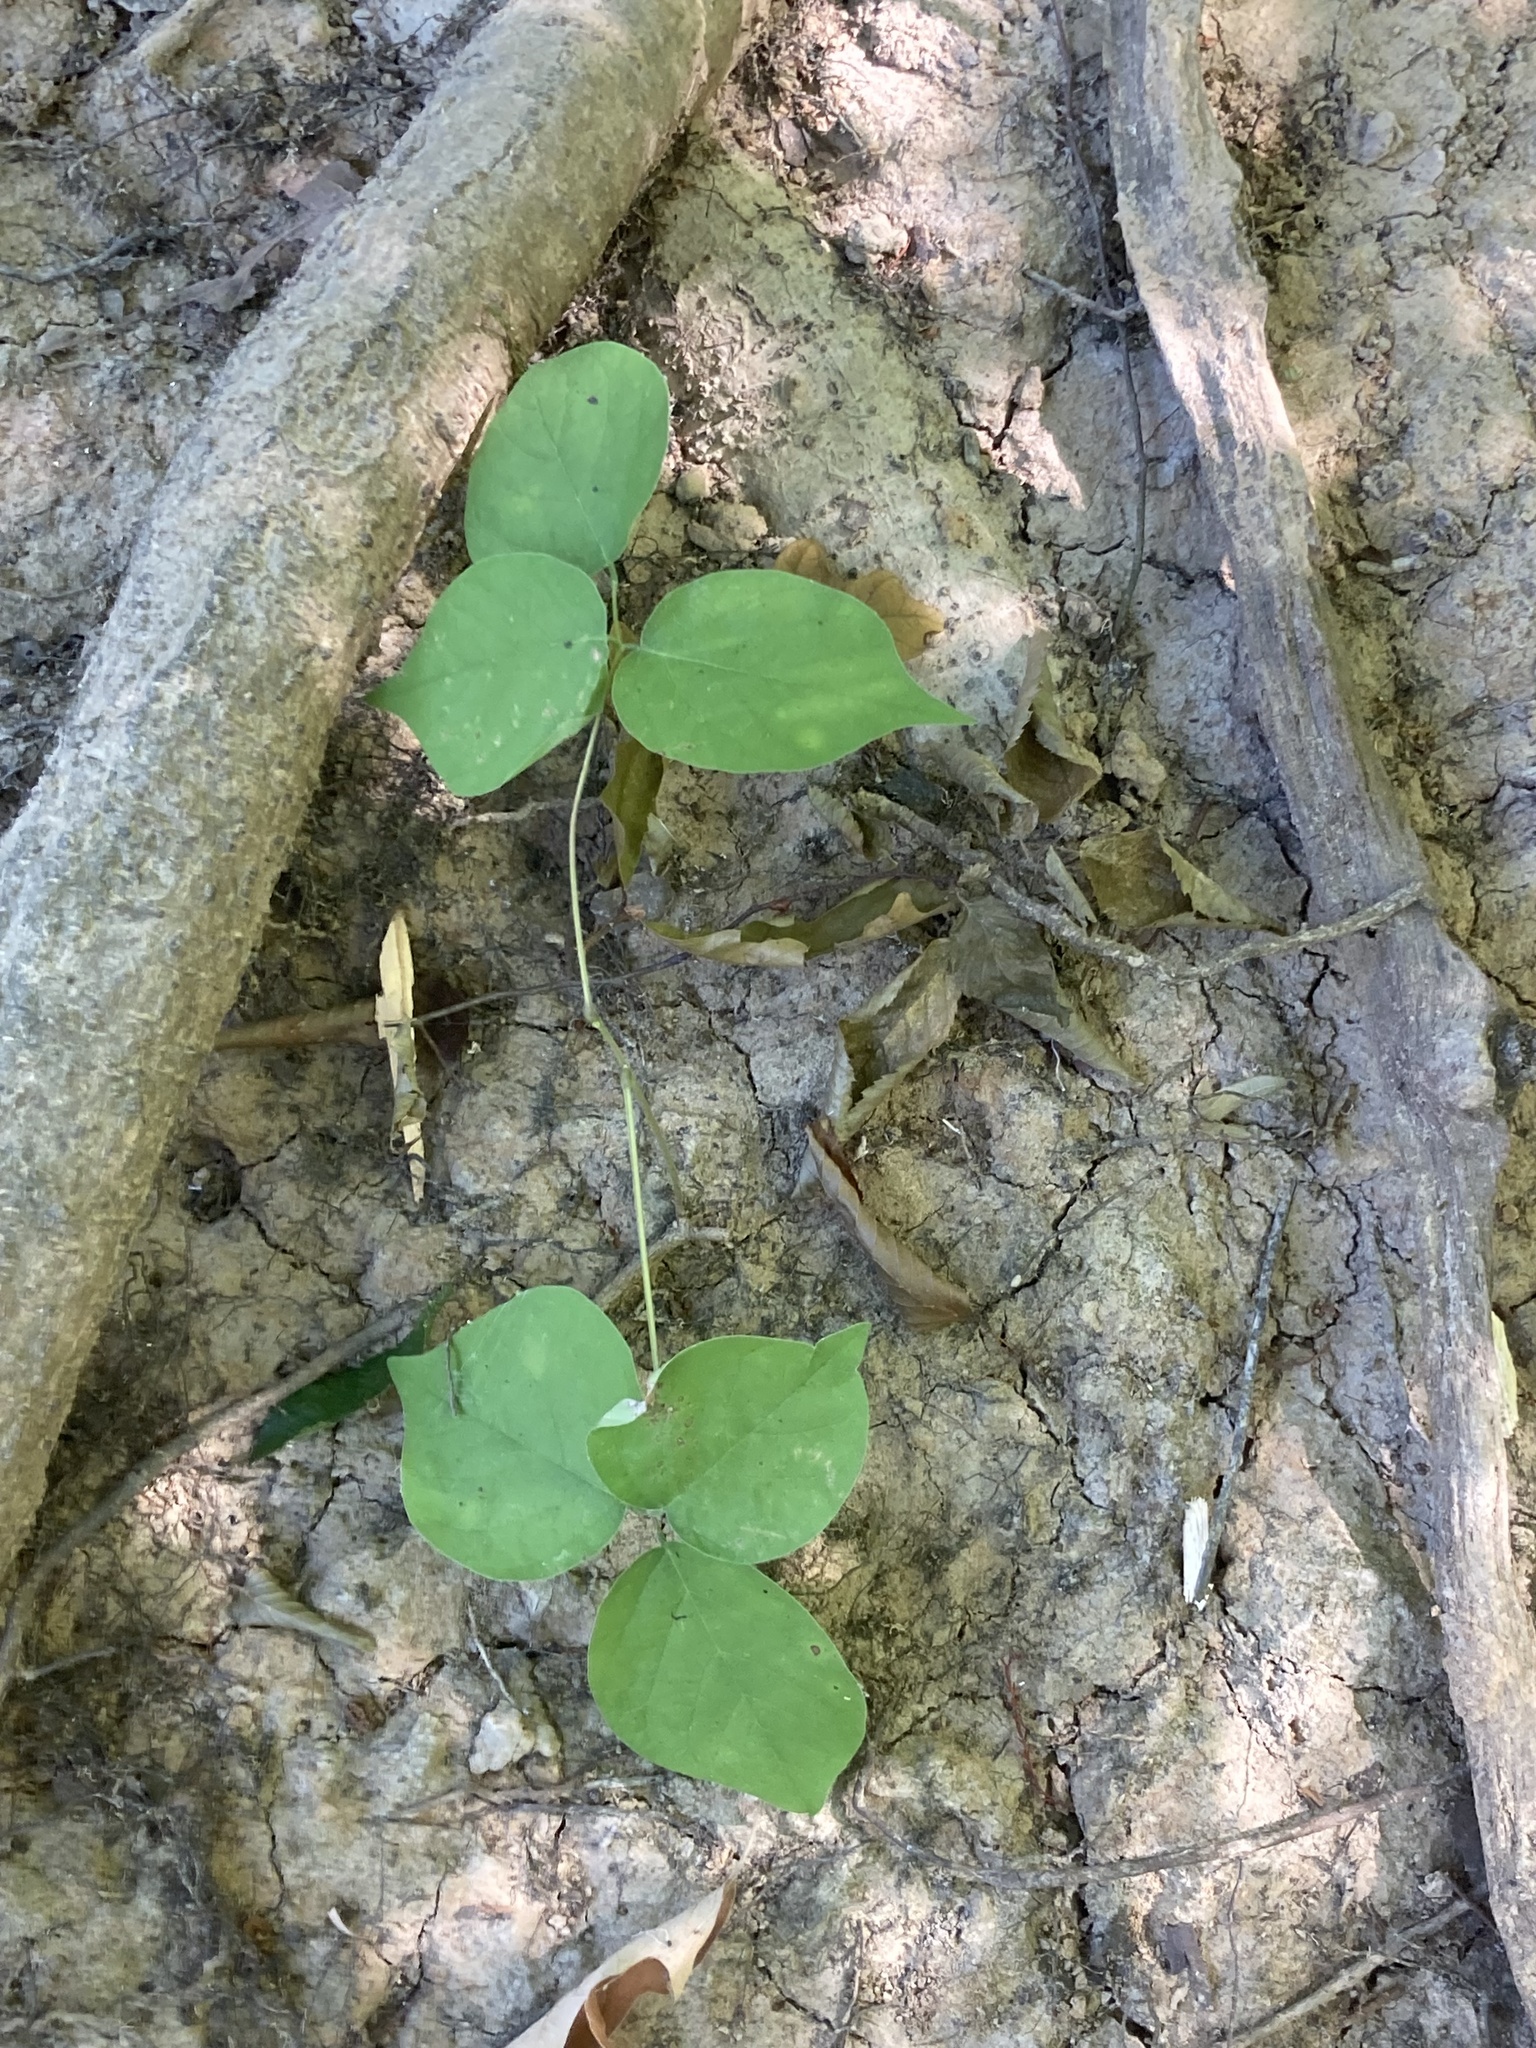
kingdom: Plantae
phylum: Tracheophyta
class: Magnoliopsida
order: Fabales
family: Fabaceae
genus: Hylodesmum
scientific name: Hylodesmum glutinosum
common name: Clustered-leaved tick-trefoil
